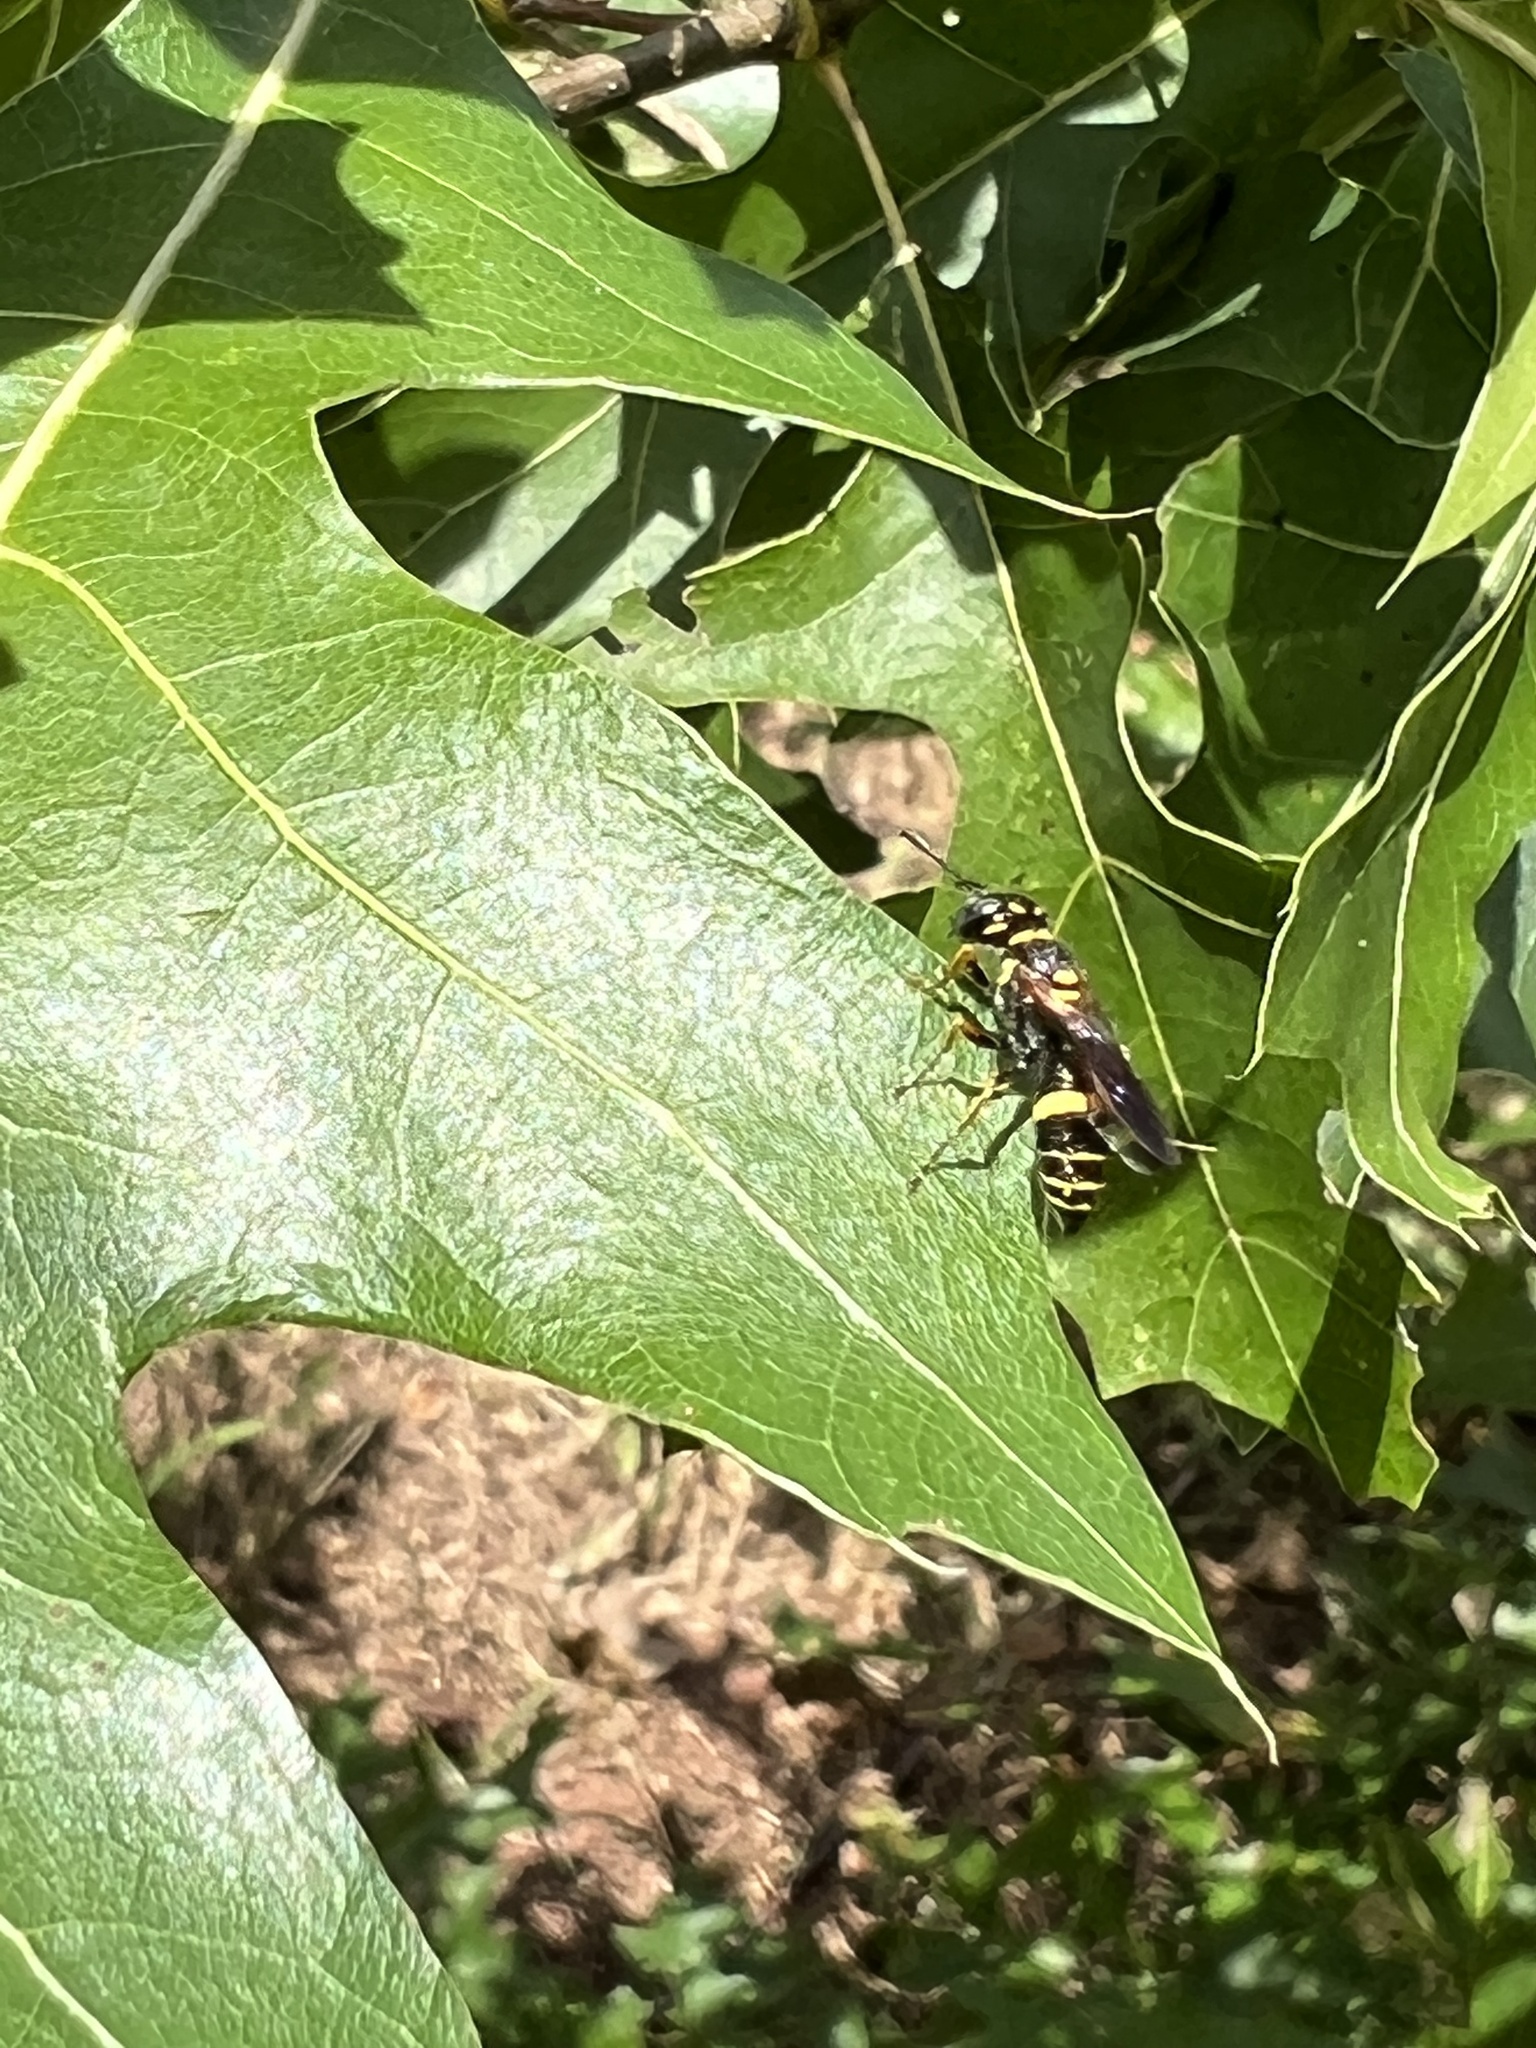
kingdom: Animalia
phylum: Arthropoda
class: Insecta
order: Hymenoptera
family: Crabronidae
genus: Philanthus
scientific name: Philanthus gibbosus
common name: Humped beewolf
